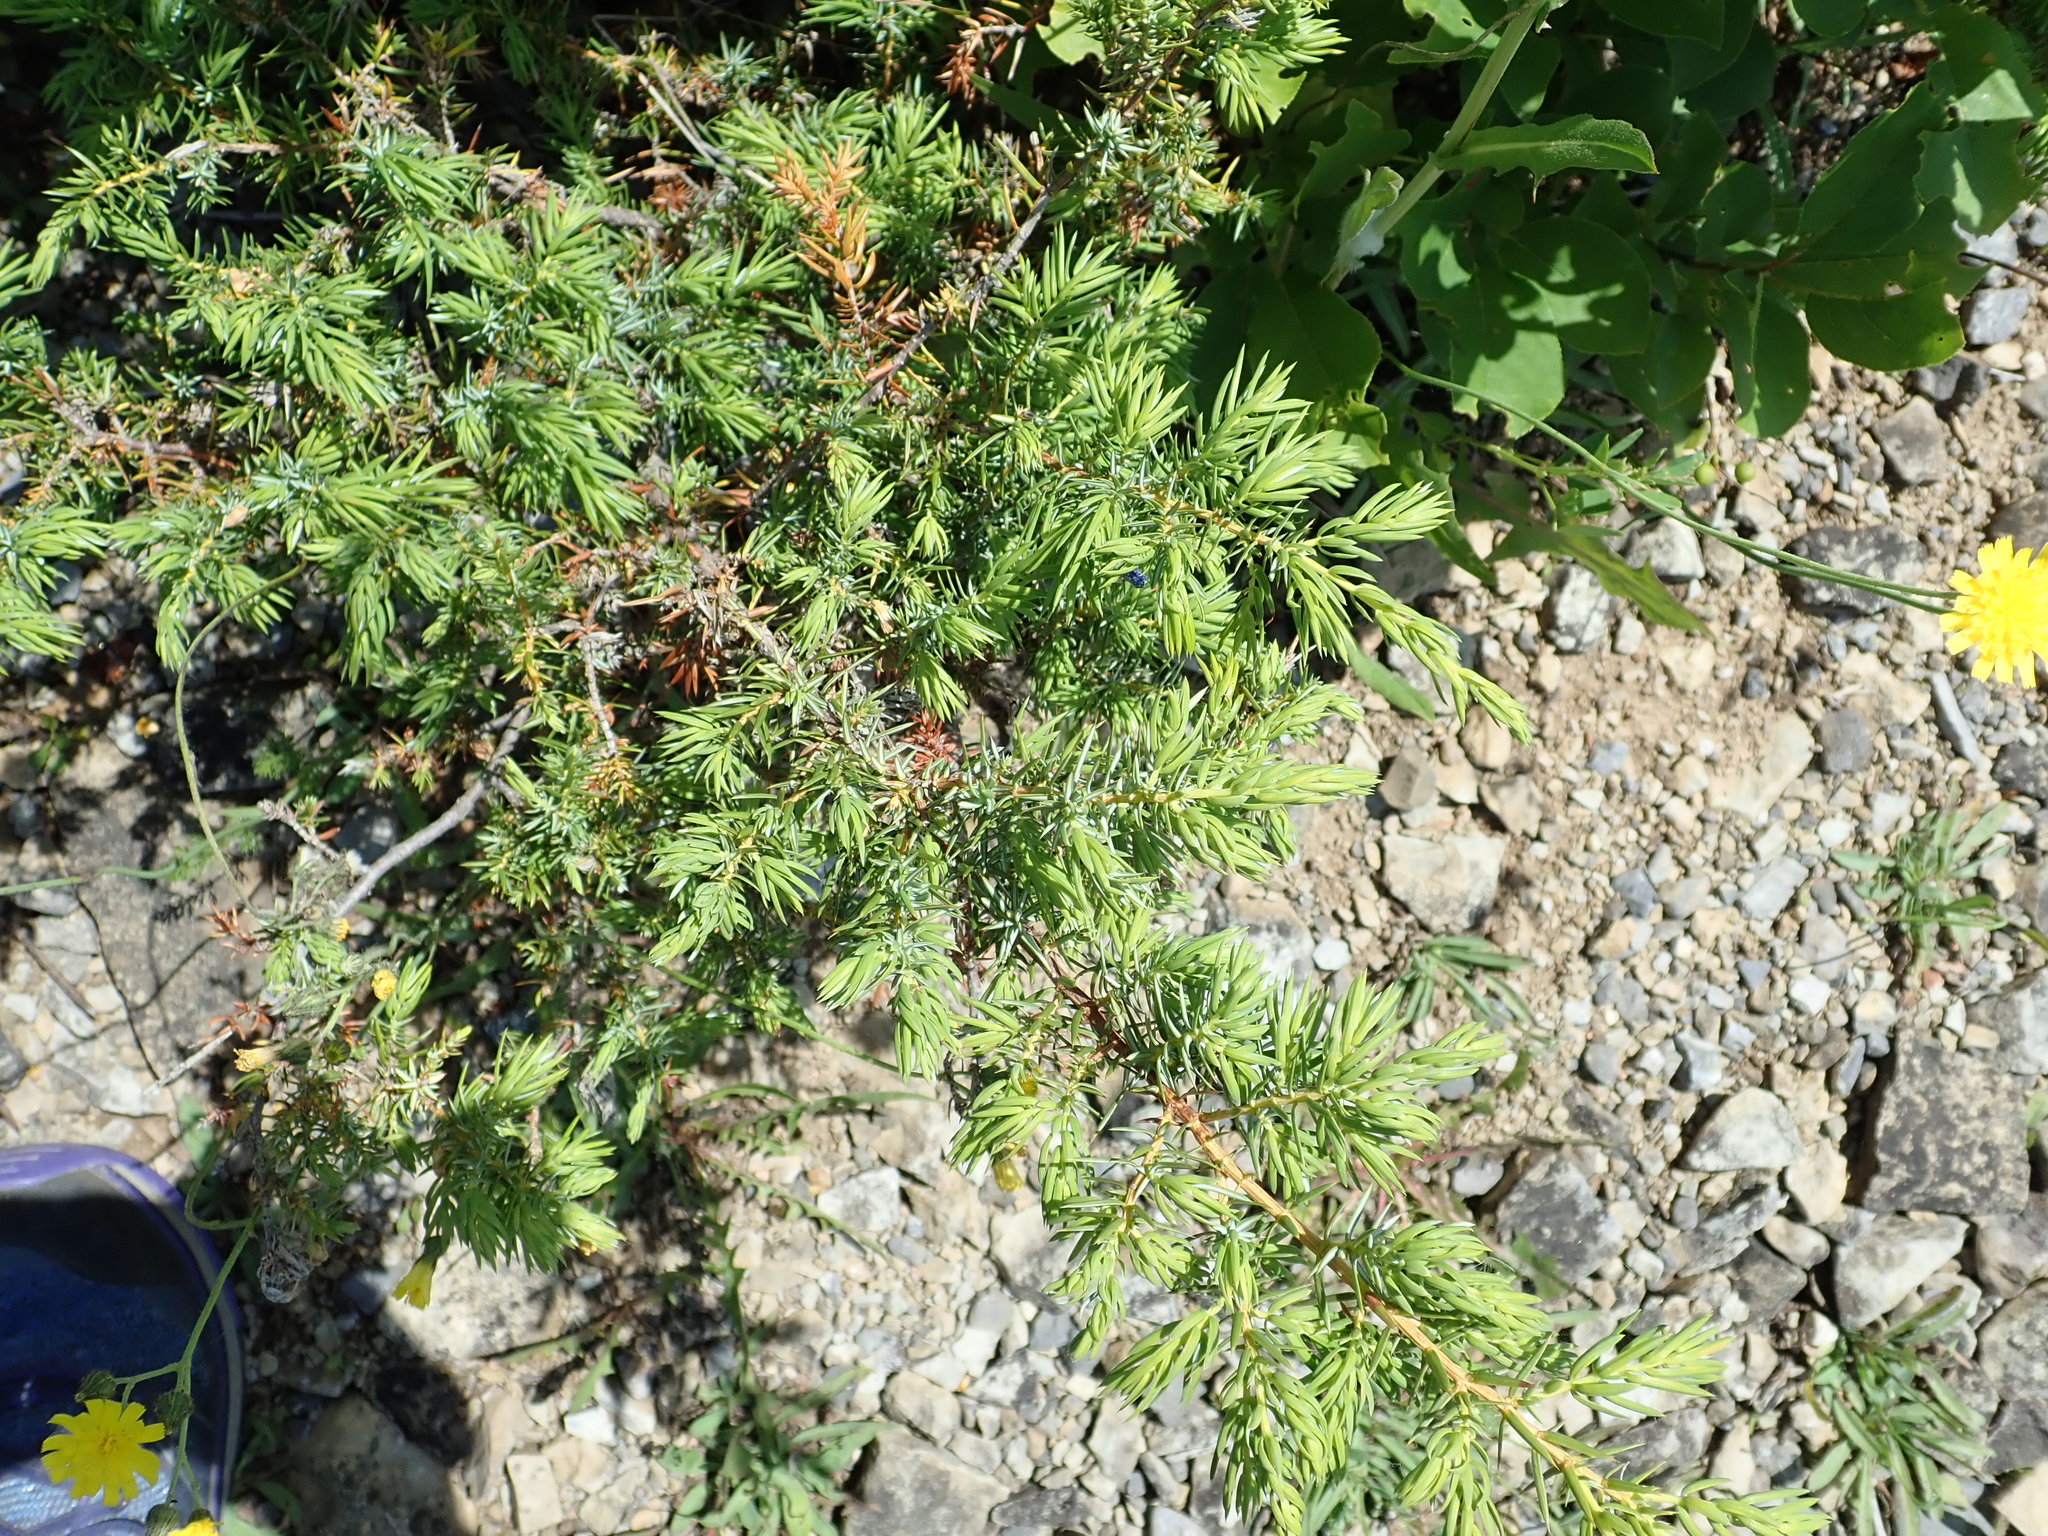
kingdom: Plantae
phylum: Tracheophyta
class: Pinopsida
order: Pinales
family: Cupressaceae
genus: Juniperus
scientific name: Juniperus communis
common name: Common juniper
